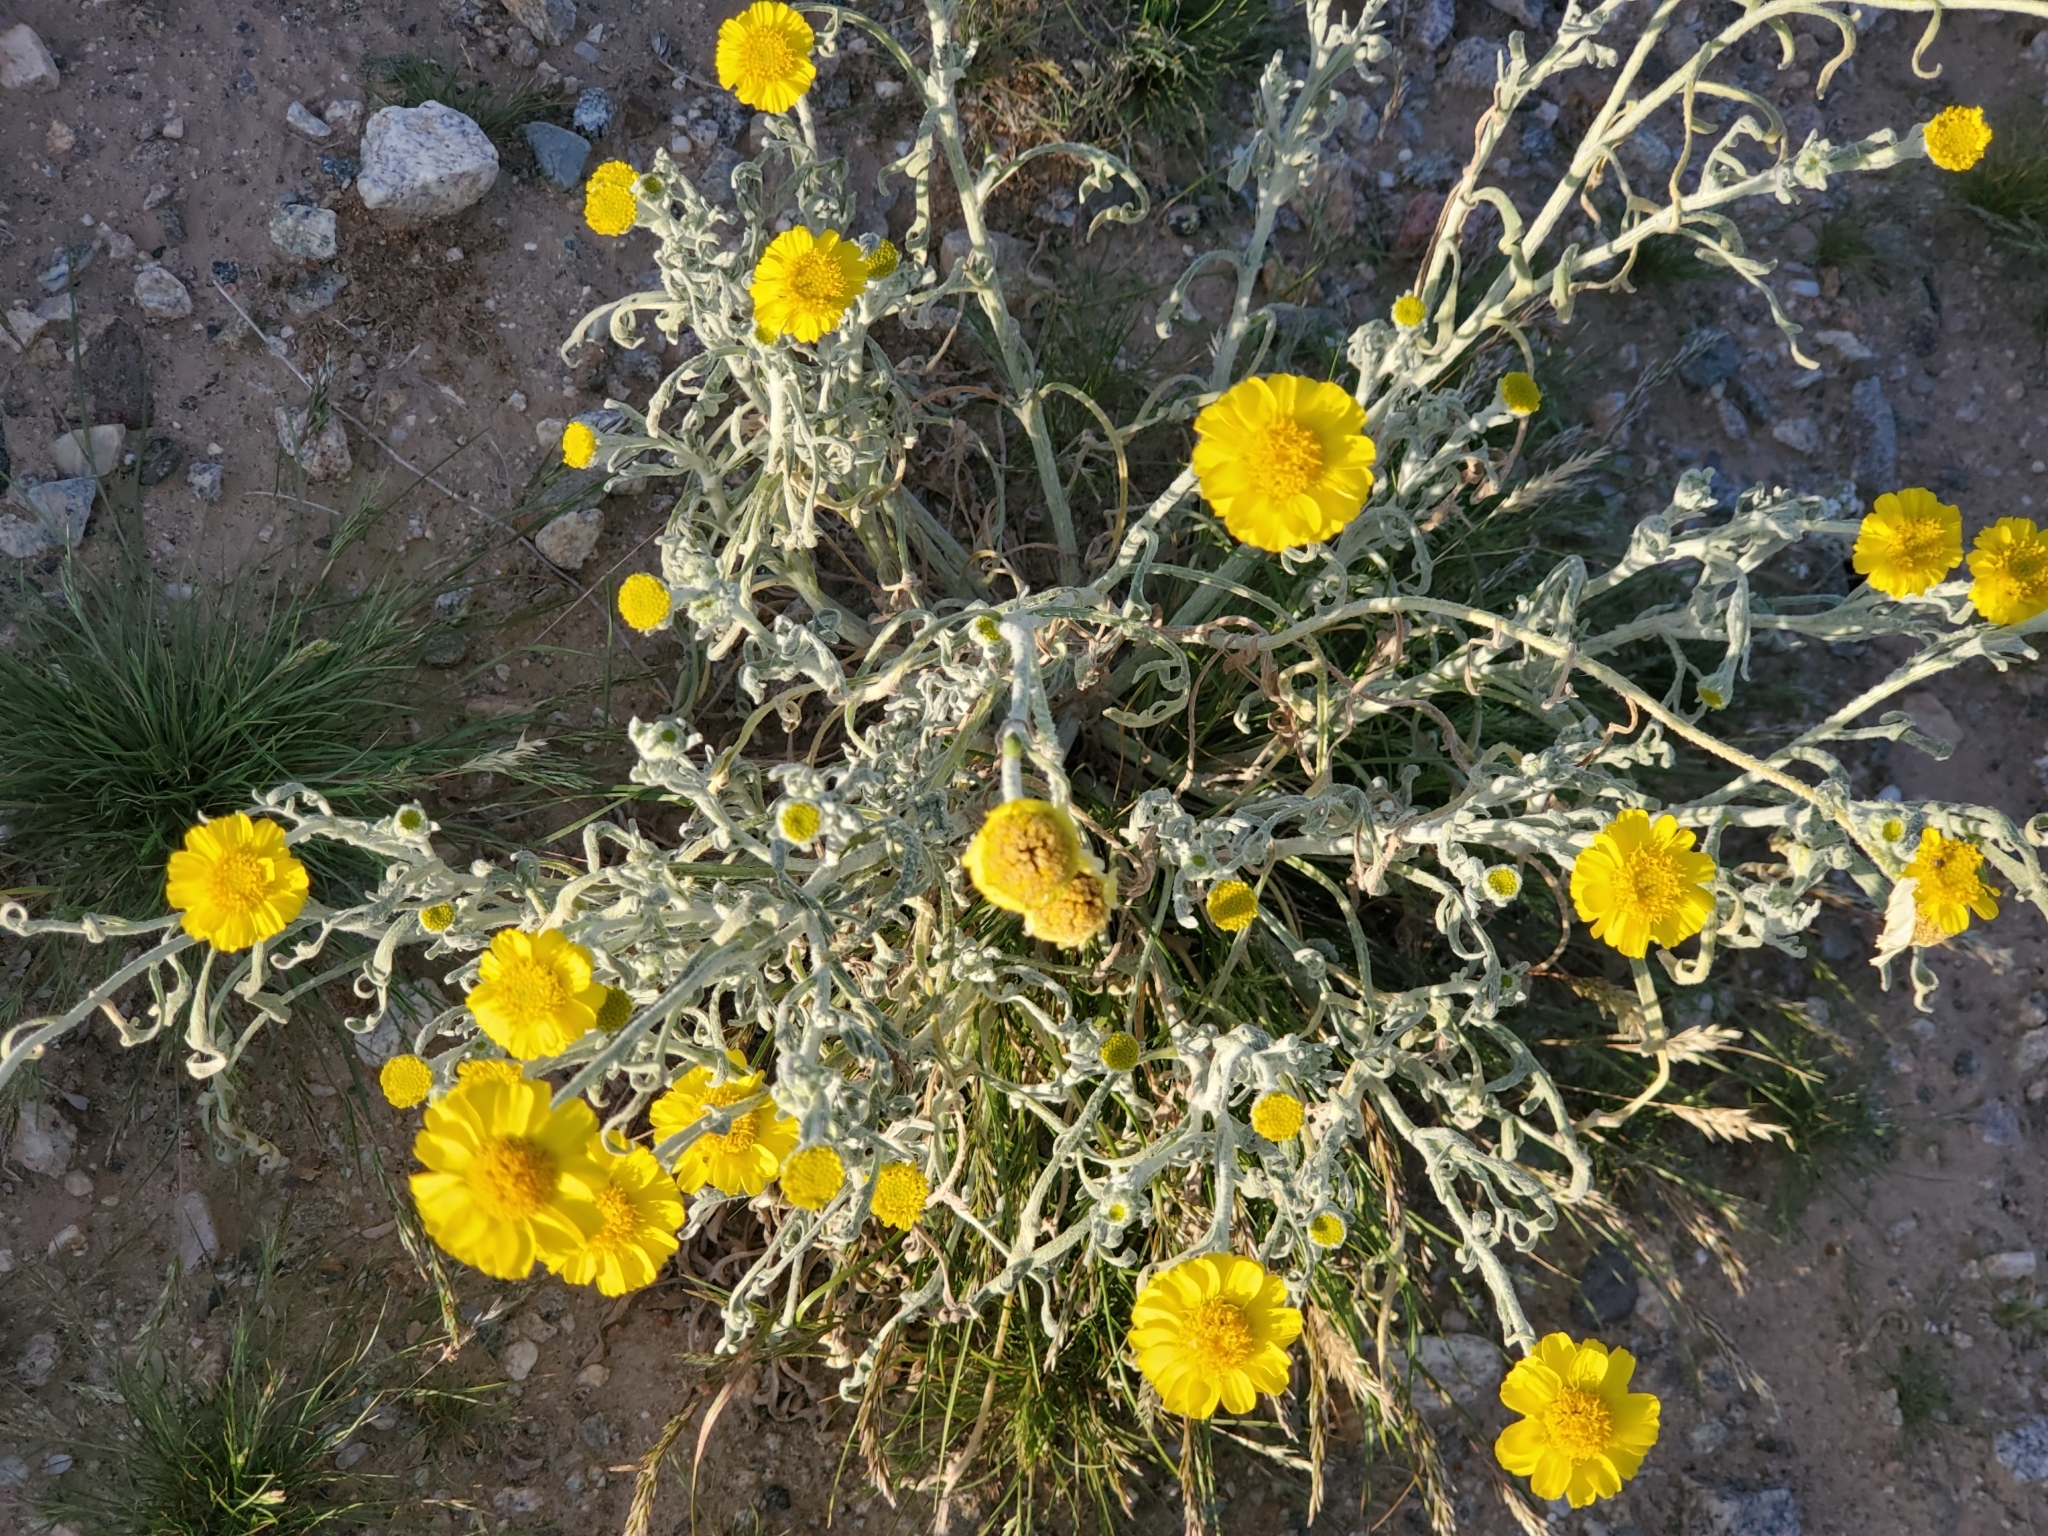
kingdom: Plantae
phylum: Tracheophyta
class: Magnoliopsida
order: Asterales
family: Asteraceae
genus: Baileya
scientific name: Baileya pleniradiata
